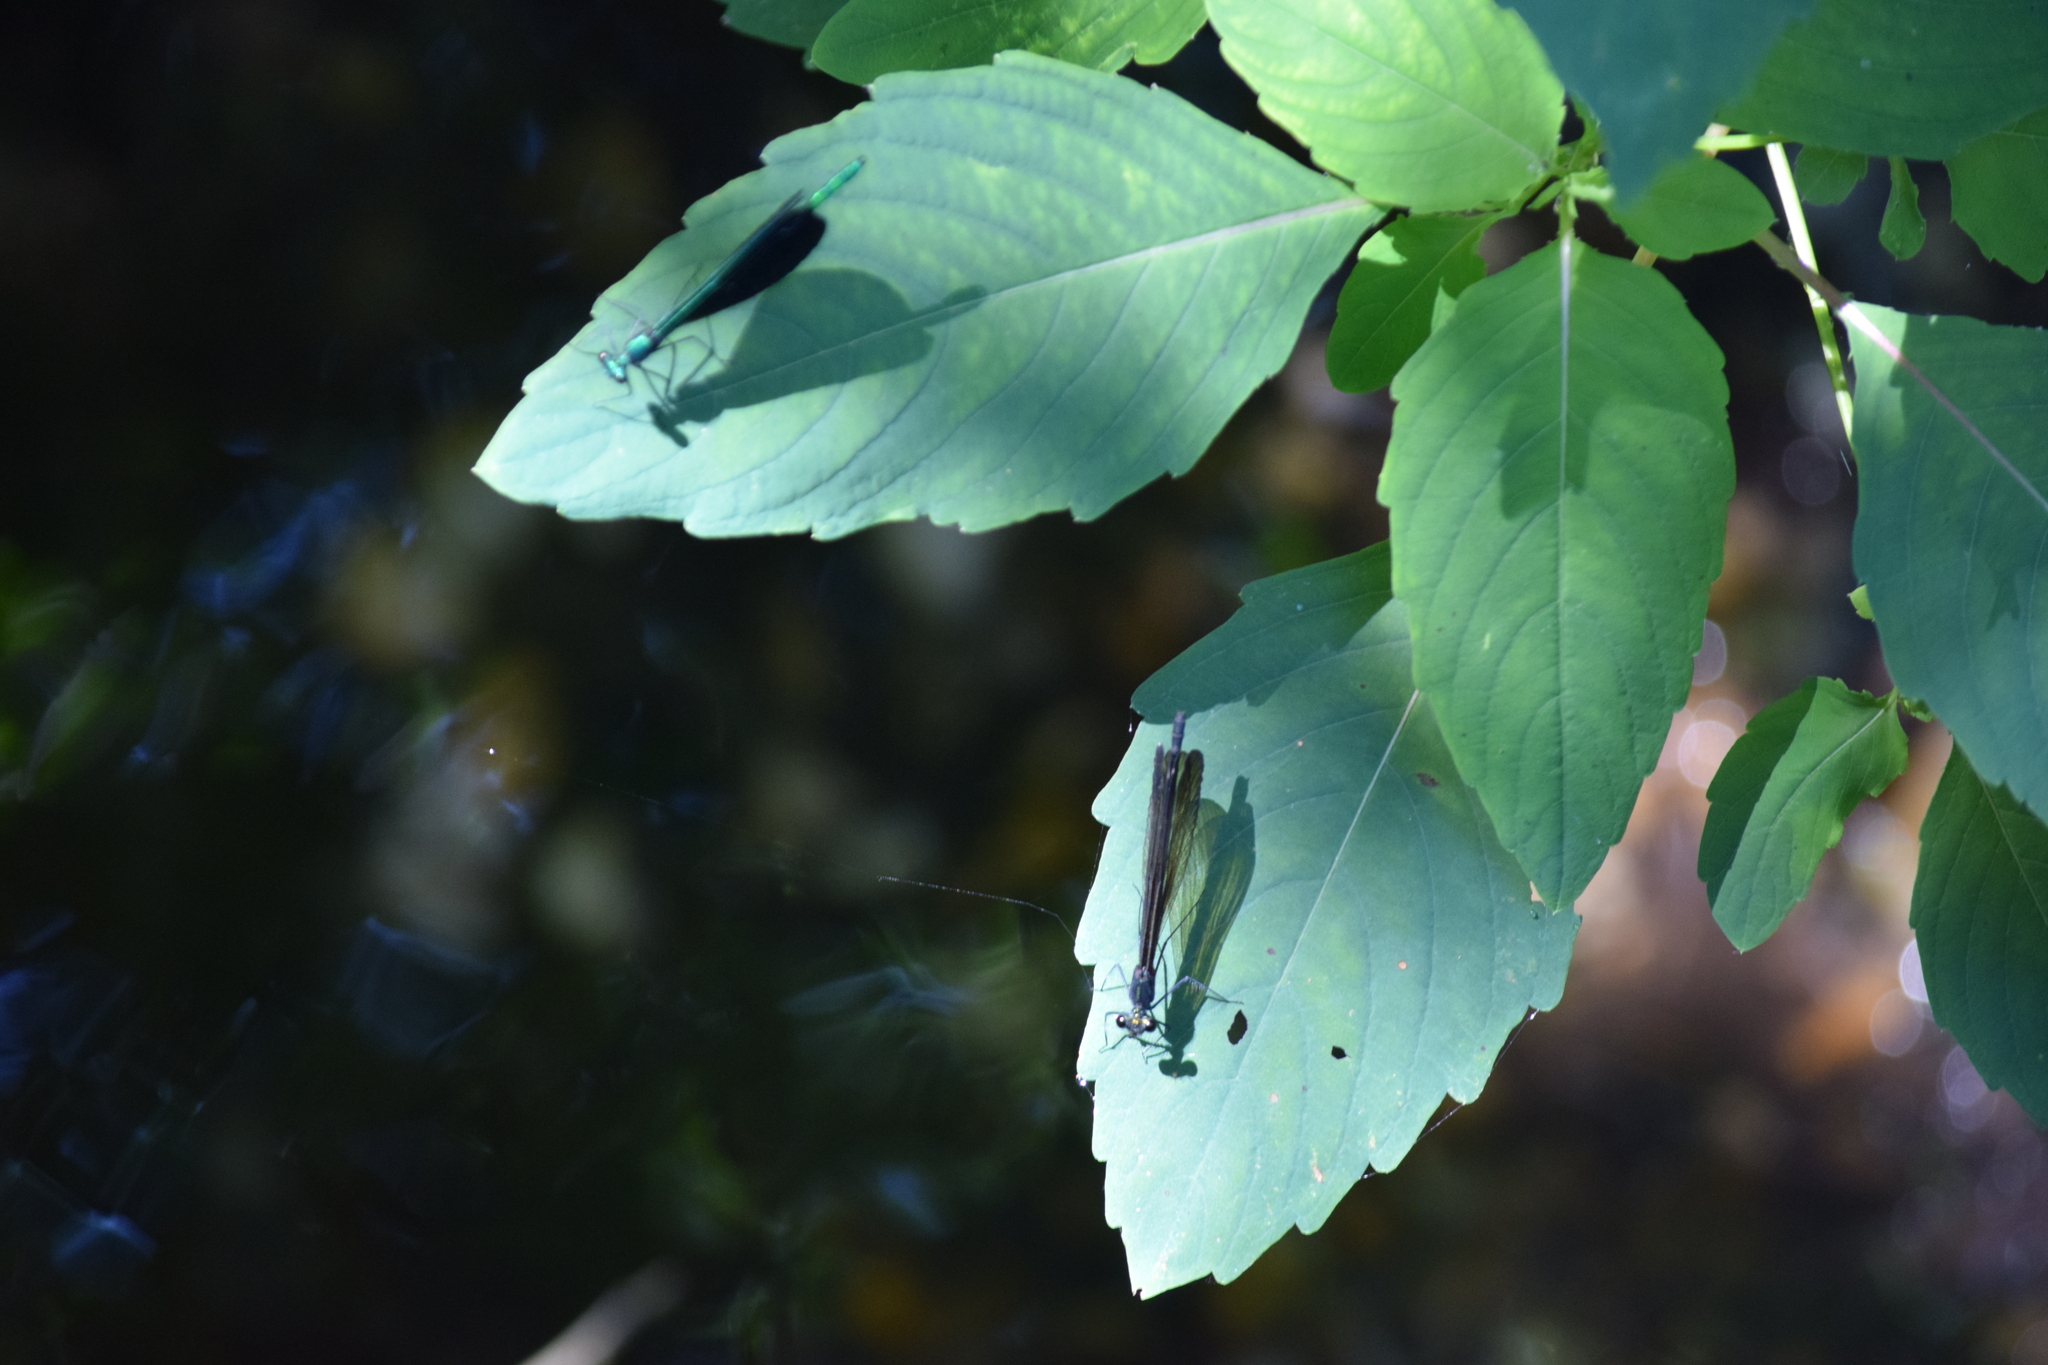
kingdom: Animalia
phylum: Arthropoda
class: Insecta
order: Odonata
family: Calopterygidae
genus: Calopteryx
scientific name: Calopteryx maculata
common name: Ebony jewelwing
